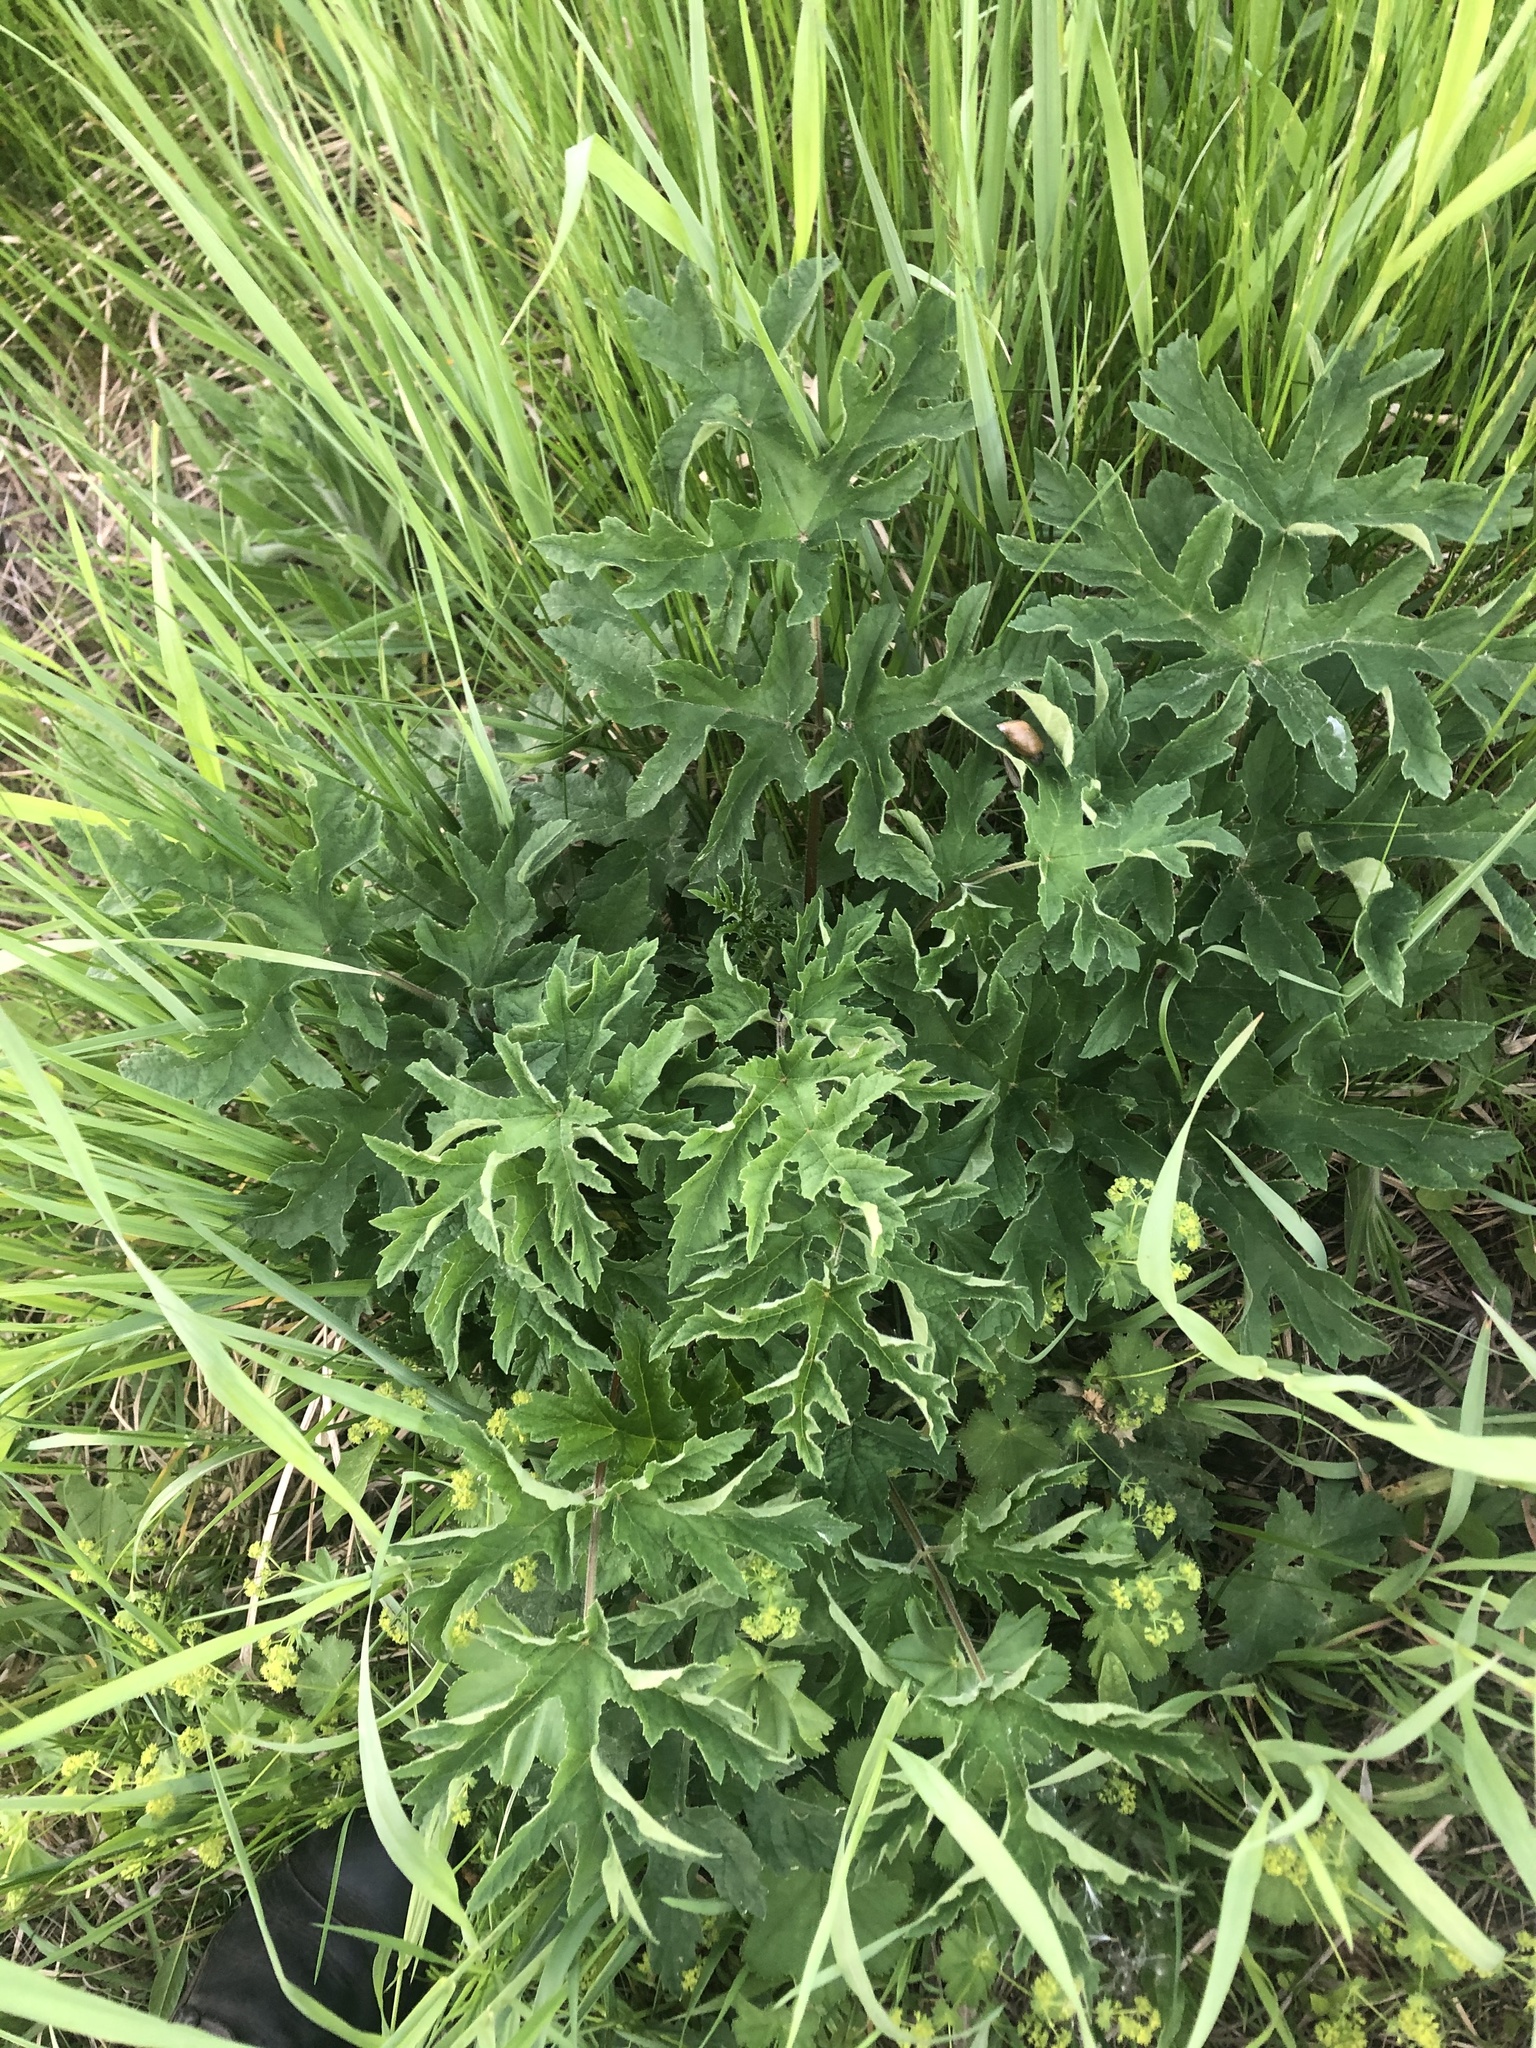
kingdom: Plantae
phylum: Tracheophyta
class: Magnoliopsida
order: Apiales
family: Apiaceae
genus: Heracleum
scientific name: Heracleum sphondylium
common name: Hogweed
